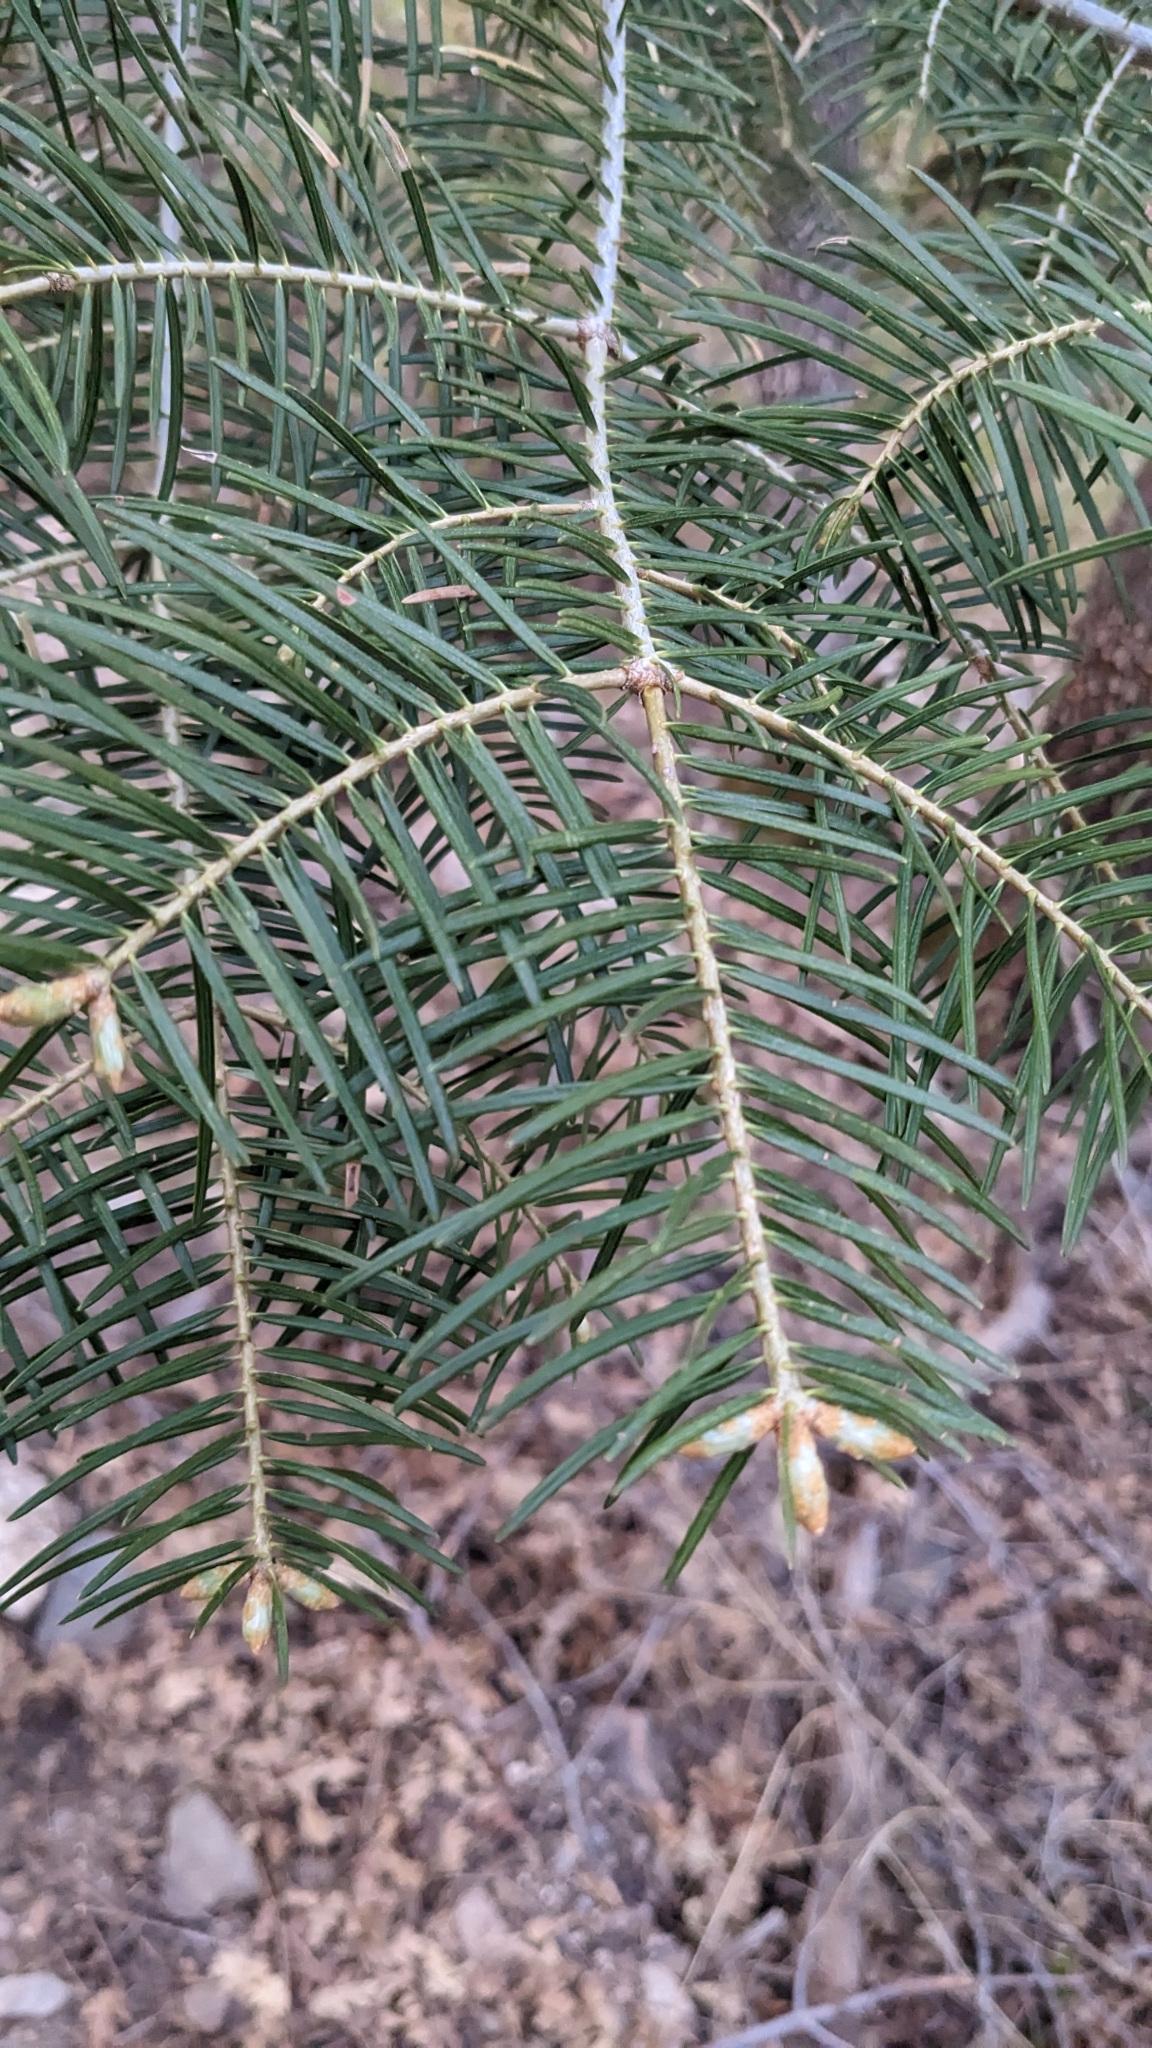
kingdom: Plantae
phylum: Tracheophyta
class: Pinopsida
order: Pinales
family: Pinaceae
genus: Abies
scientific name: Abies concolor
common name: Colorado fir
